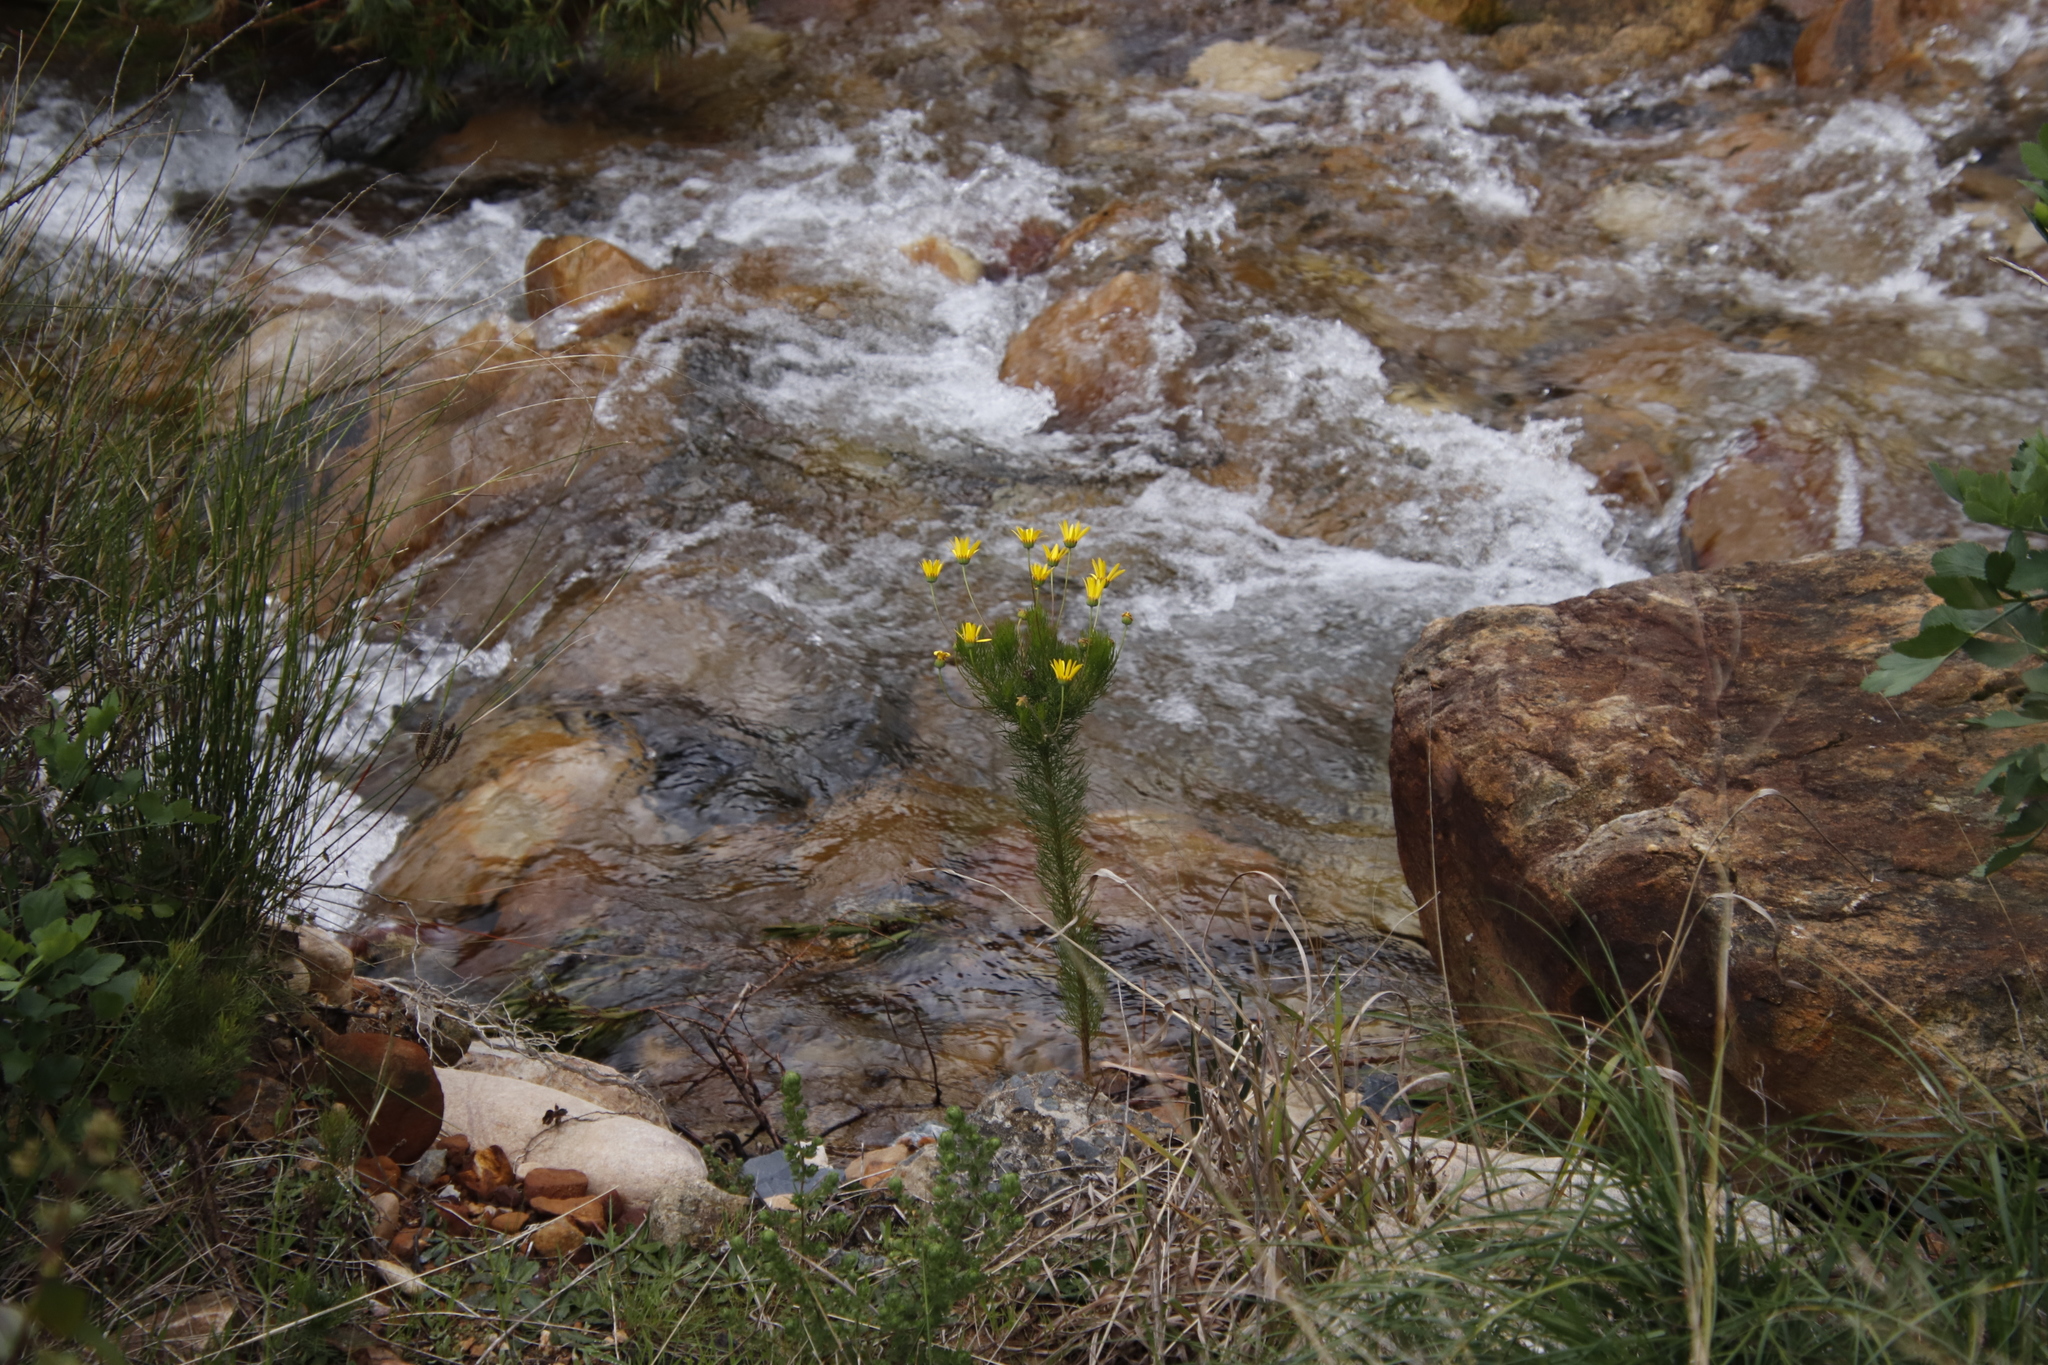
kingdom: Plantae
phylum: Tracheophyta
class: Magnoliopsida
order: Asterales
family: Asteraceae
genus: Euryops
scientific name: Euryops abrotanifolius
